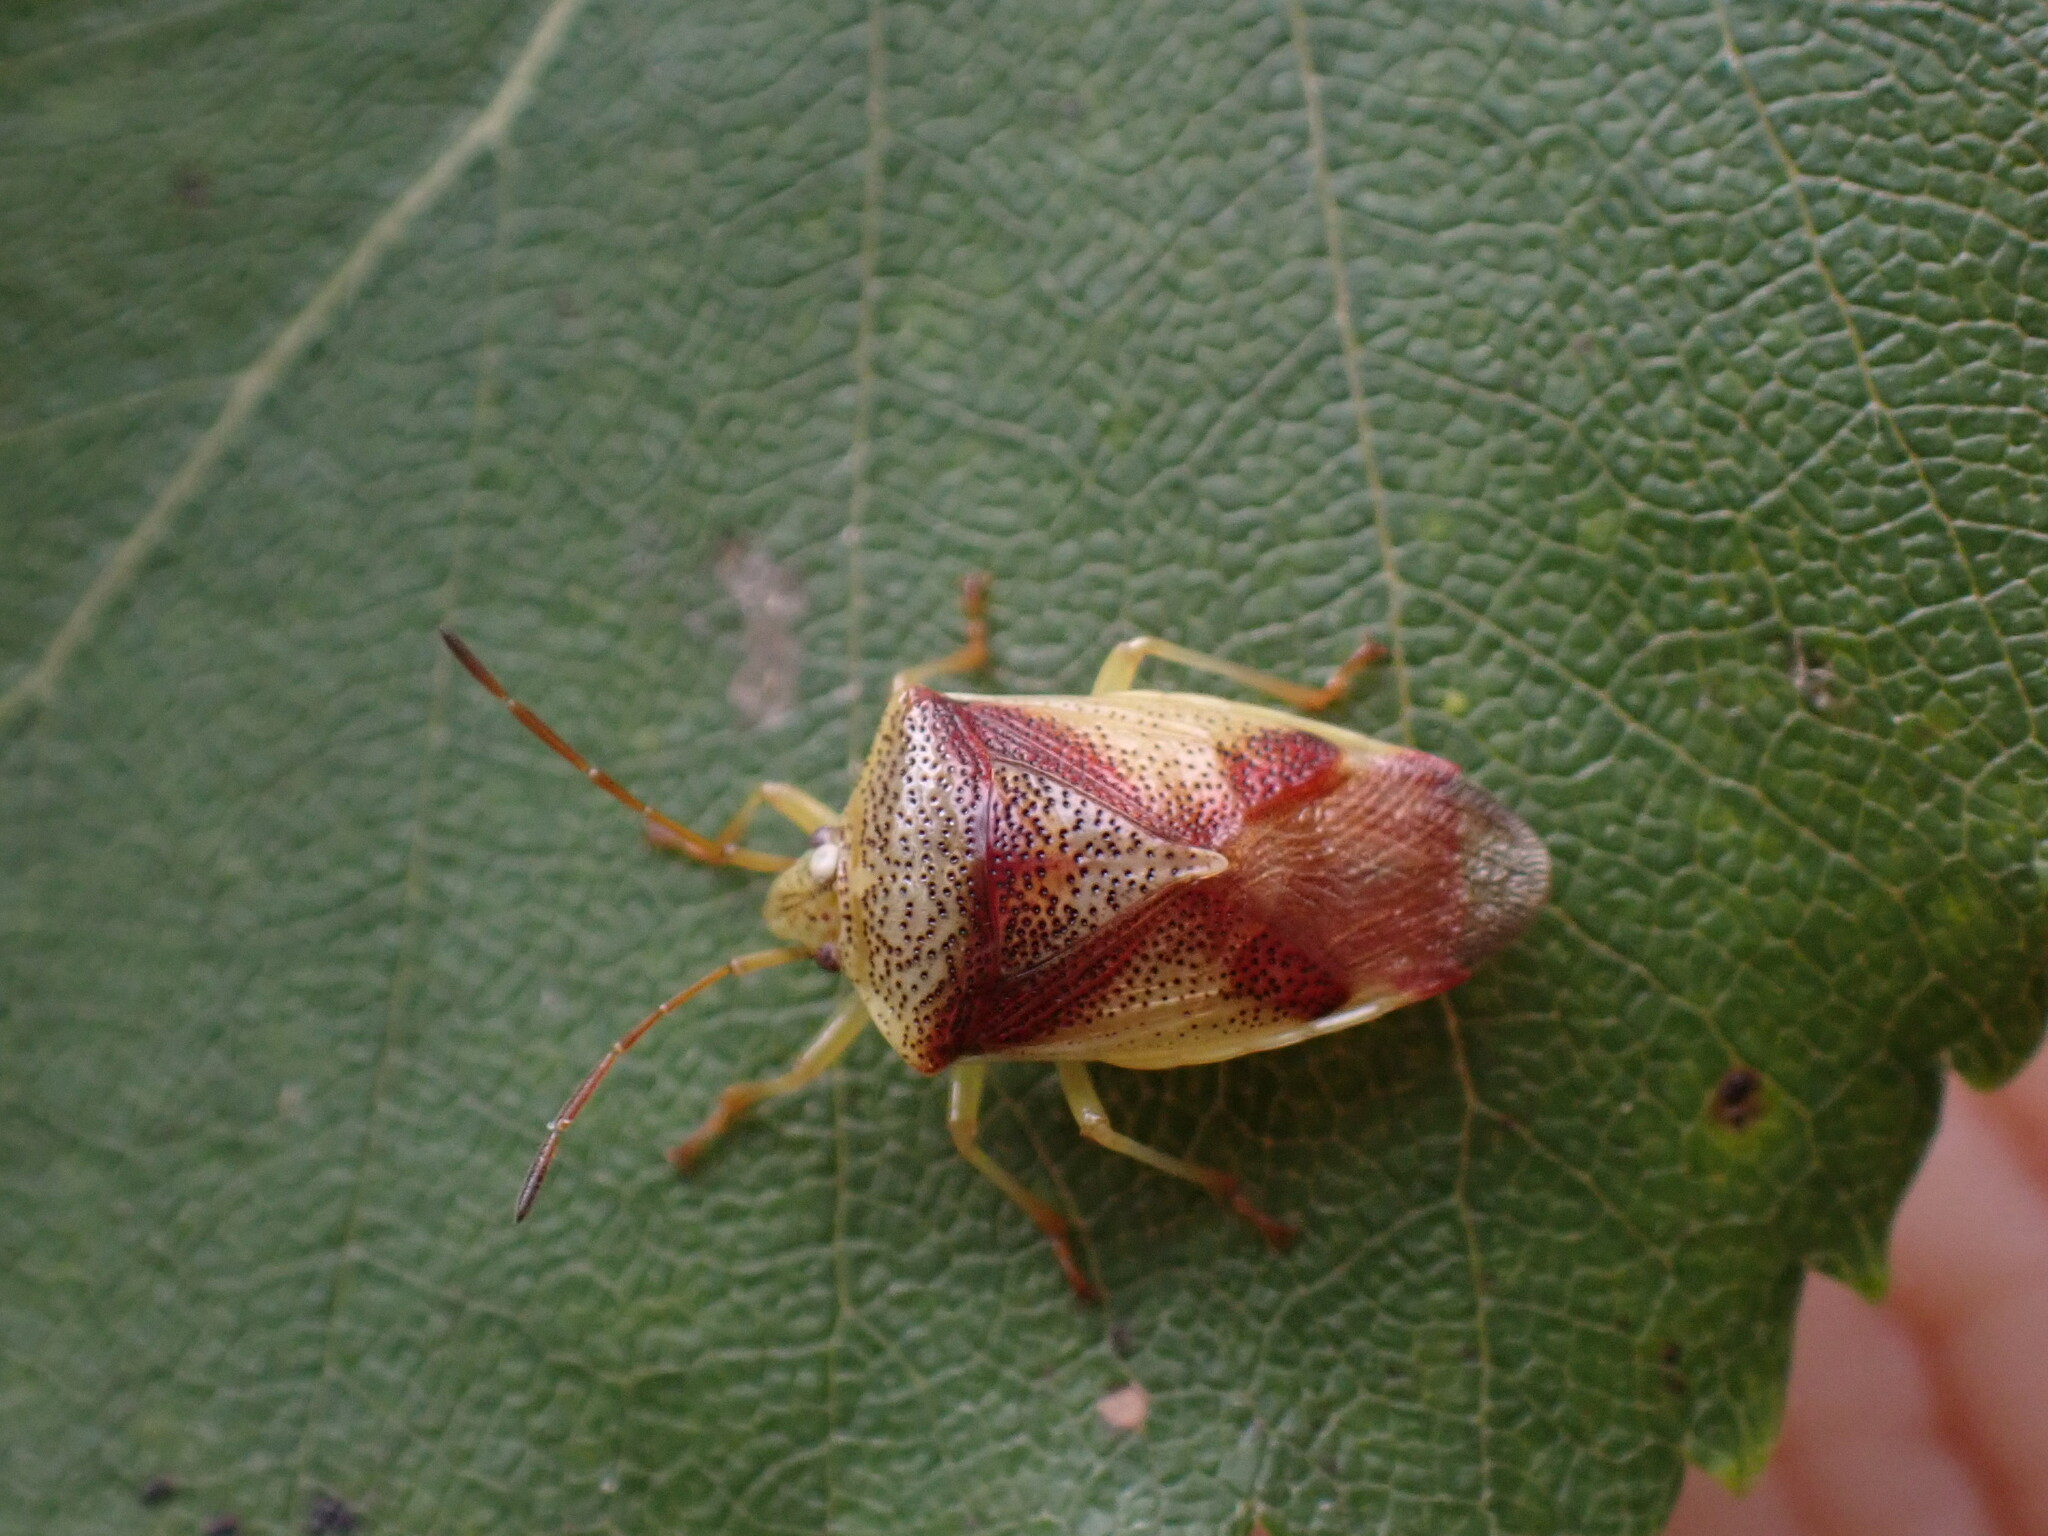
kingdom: Animalia
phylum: Arthropoda
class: Insecta
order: Hemiptera
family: Acanthosomatidae
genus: Elasmostethus
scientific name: Elasmostethus cruciatus
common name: Red-cross shield bug
